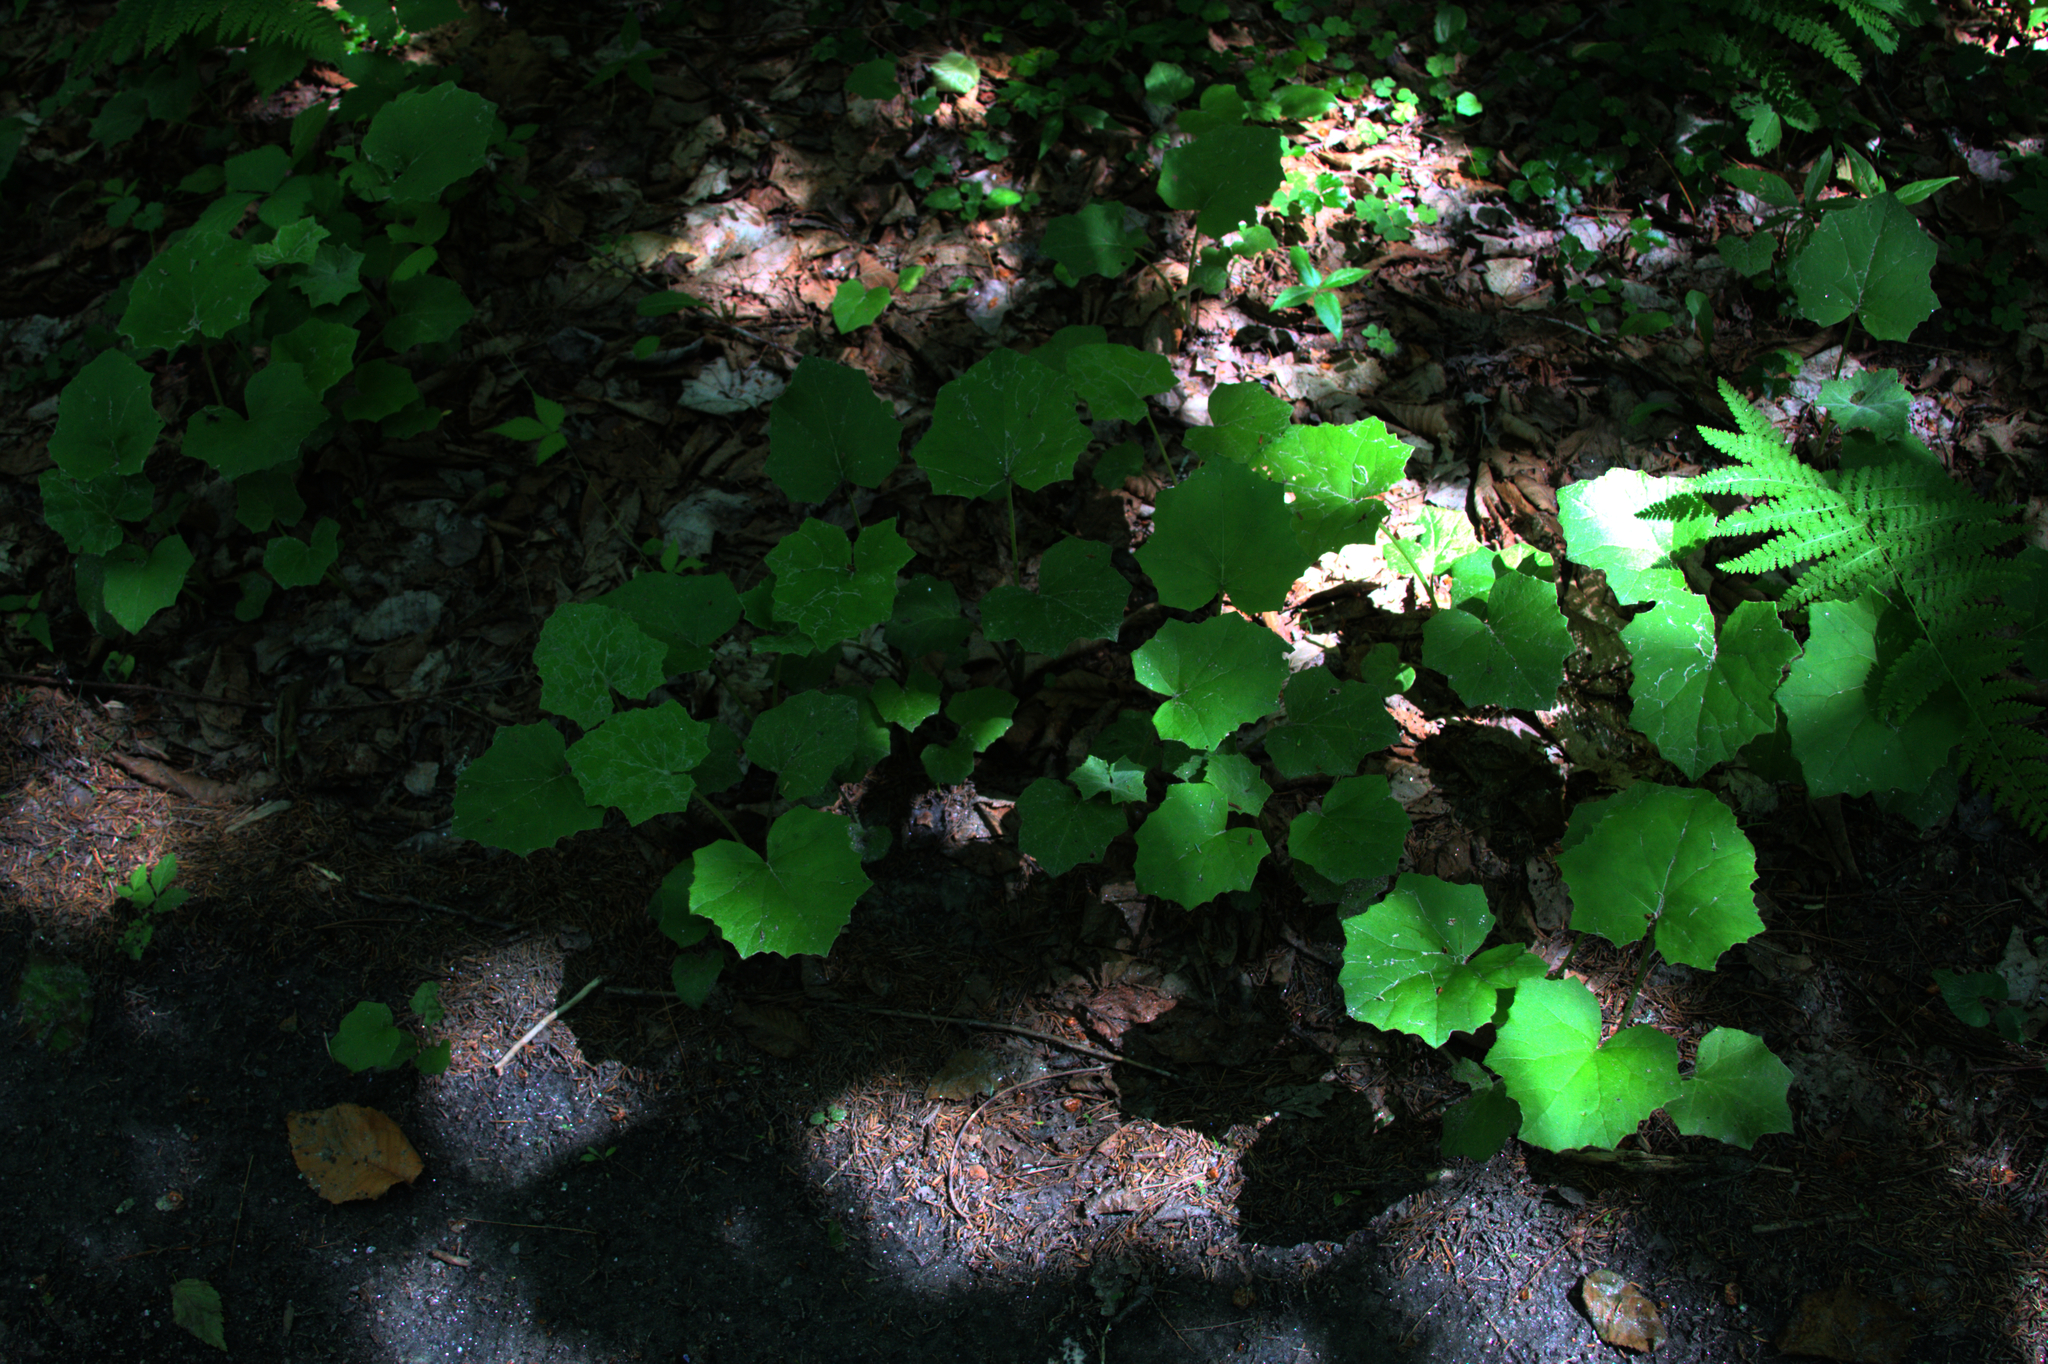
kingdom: Plantae
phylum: Tracheophyta
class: Magnoliopsida
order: Asterales
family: Asteraceae
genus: Tussilago
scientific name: Tussilago farfara
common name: Coltsfoot
